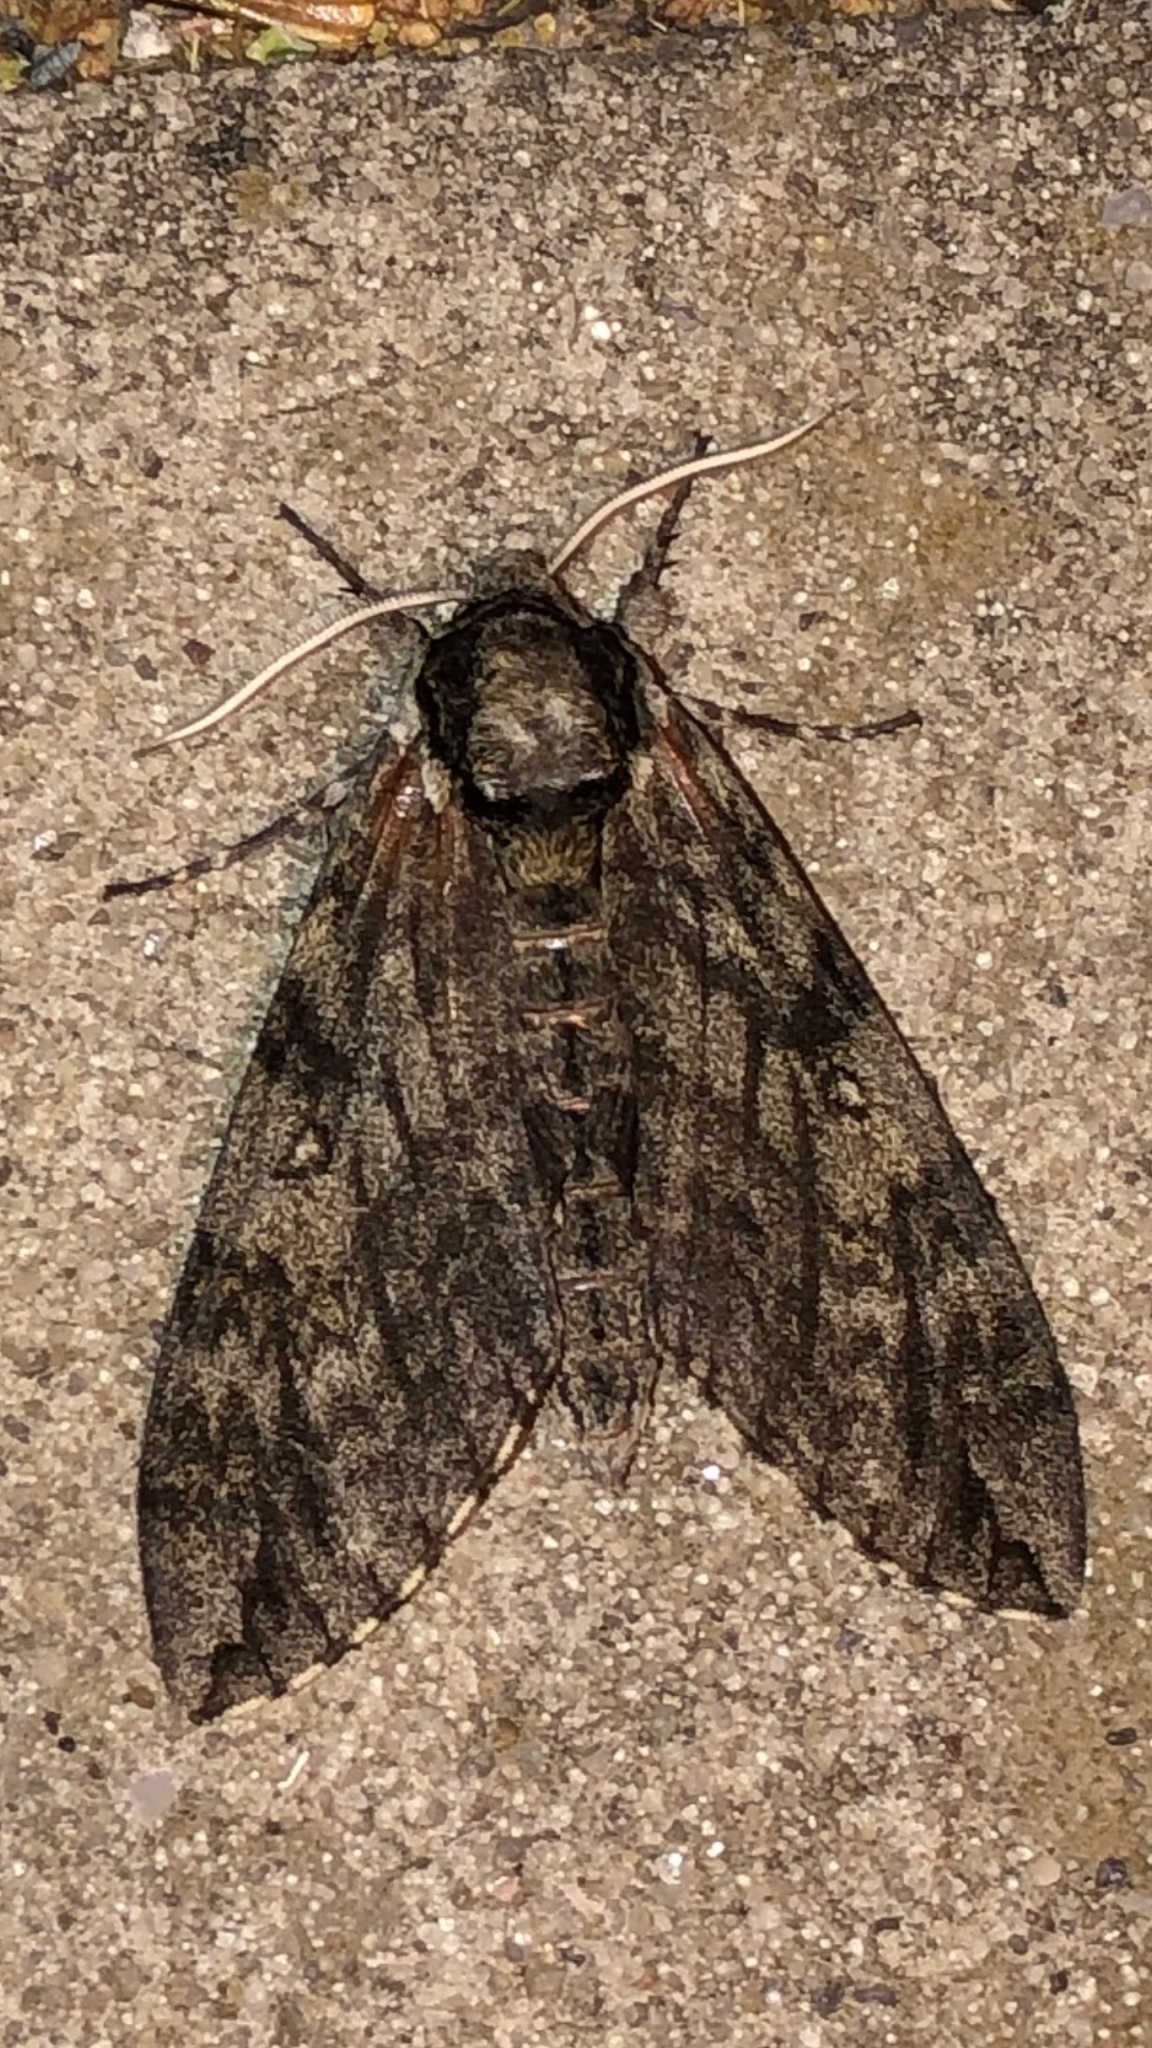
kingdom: Animalia
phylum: Arthropoda
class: Insecta
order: Lepidoptera
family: Sphingidae
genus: Ceratomia
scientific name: Ceratomia undulosa
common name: Waved sphinx
